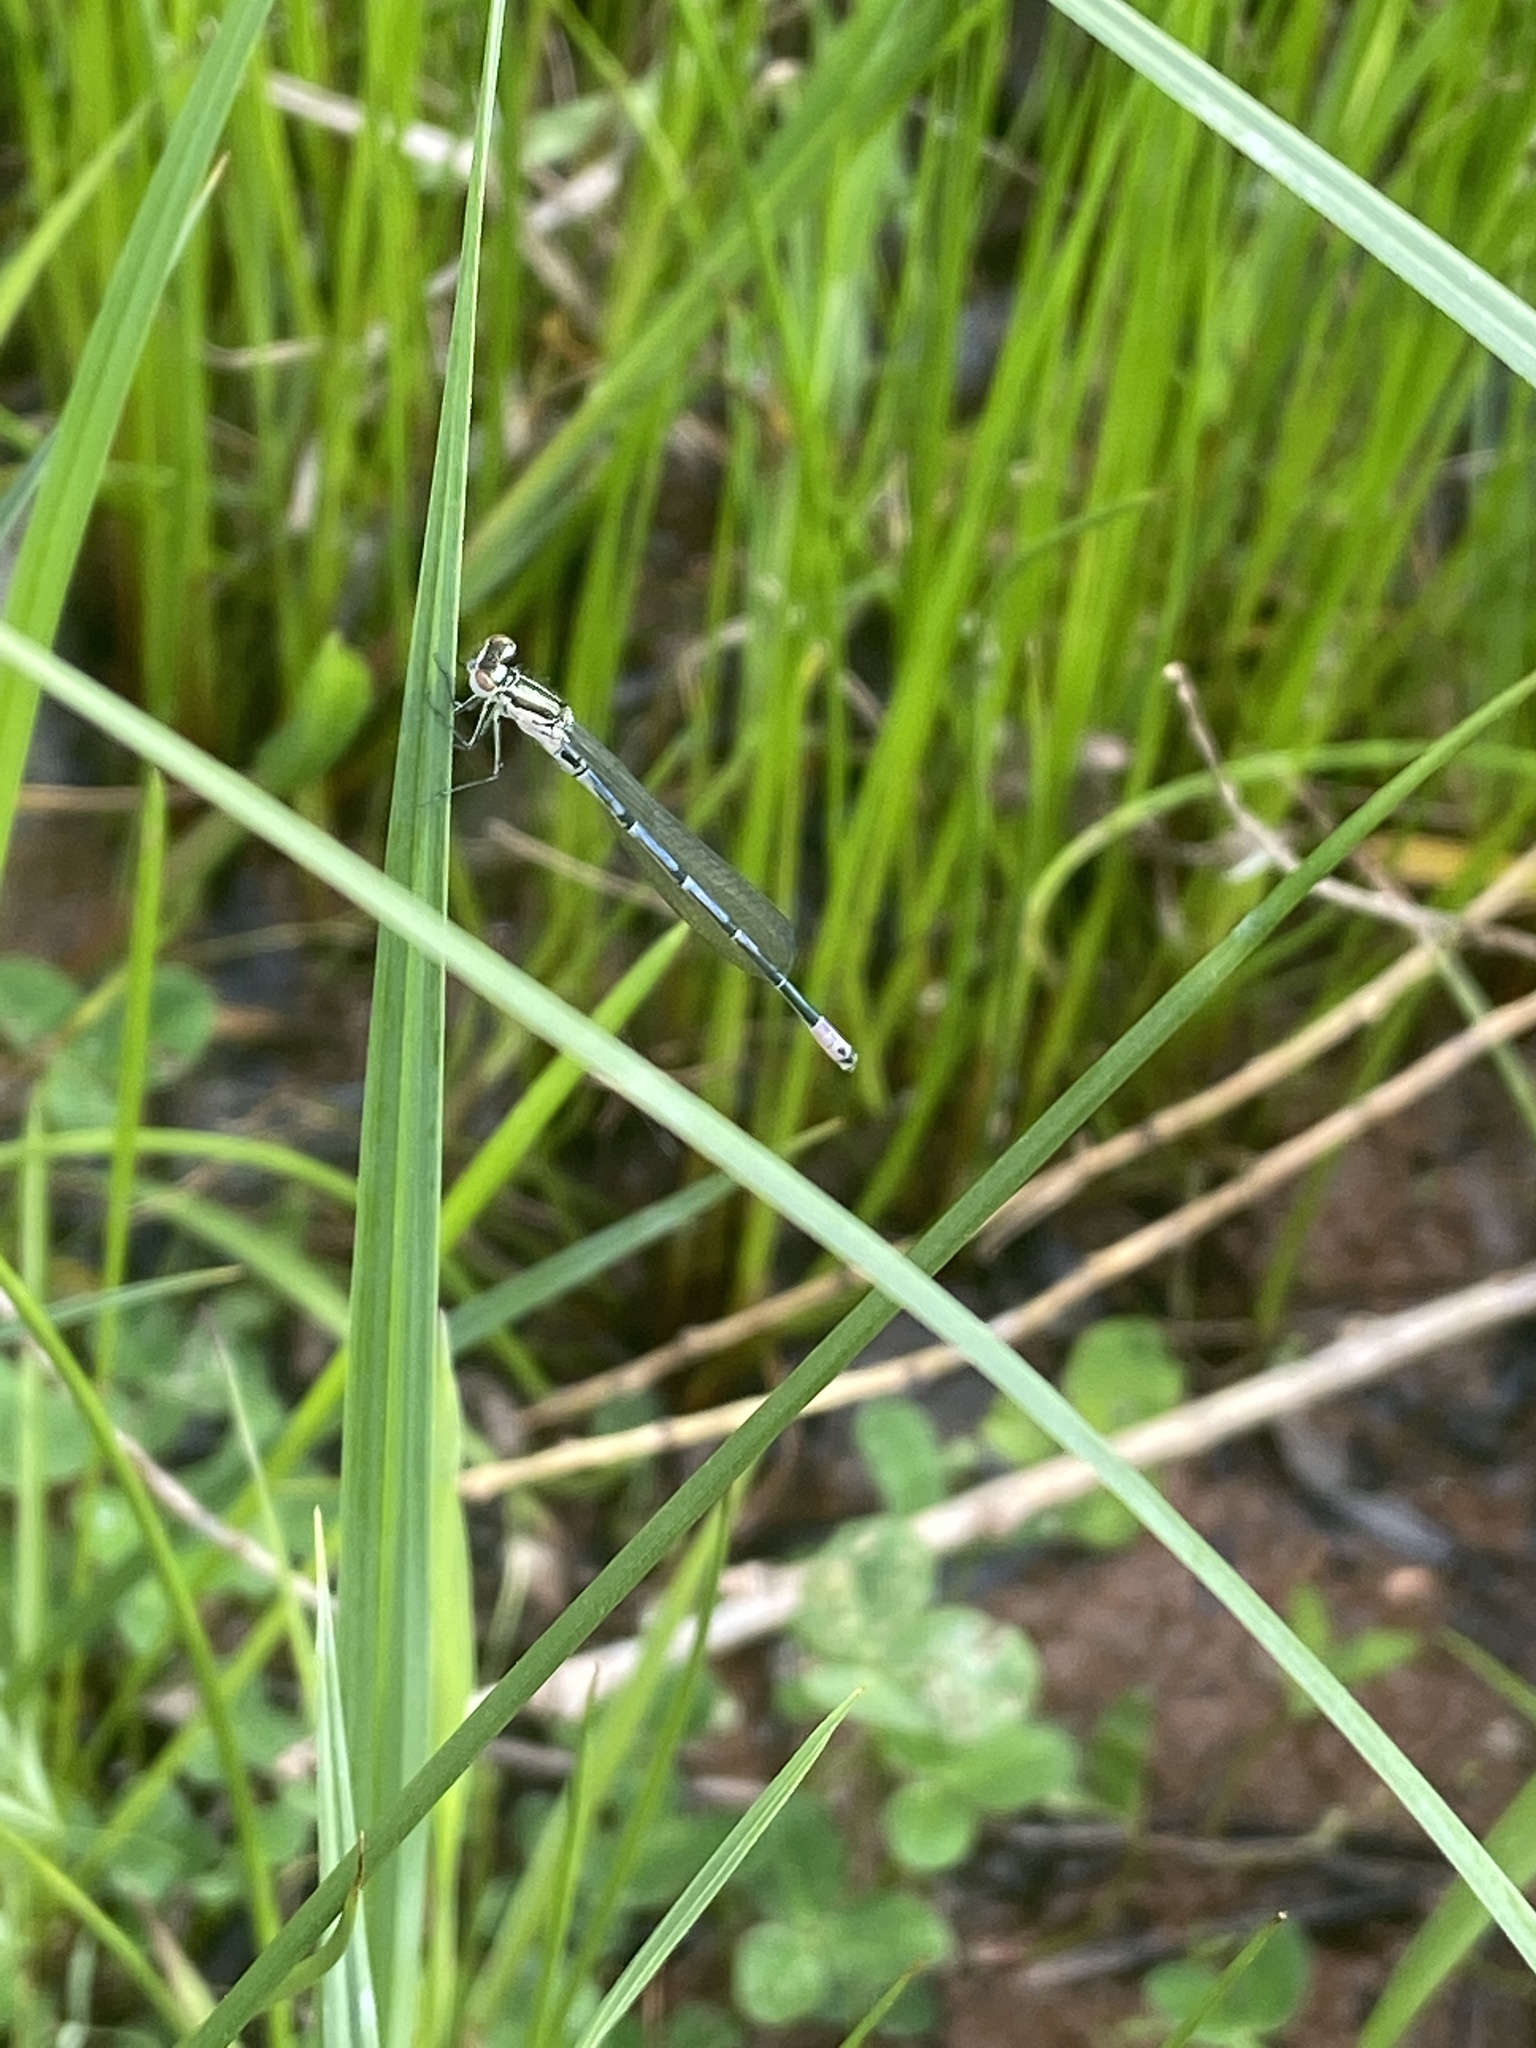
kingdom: Animalia
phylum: Arthropoda
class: Insecta
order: Odonata
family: Coenagrionidae
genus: Coenagrion
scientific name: Coenagrion puella
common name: Azure damselfly
